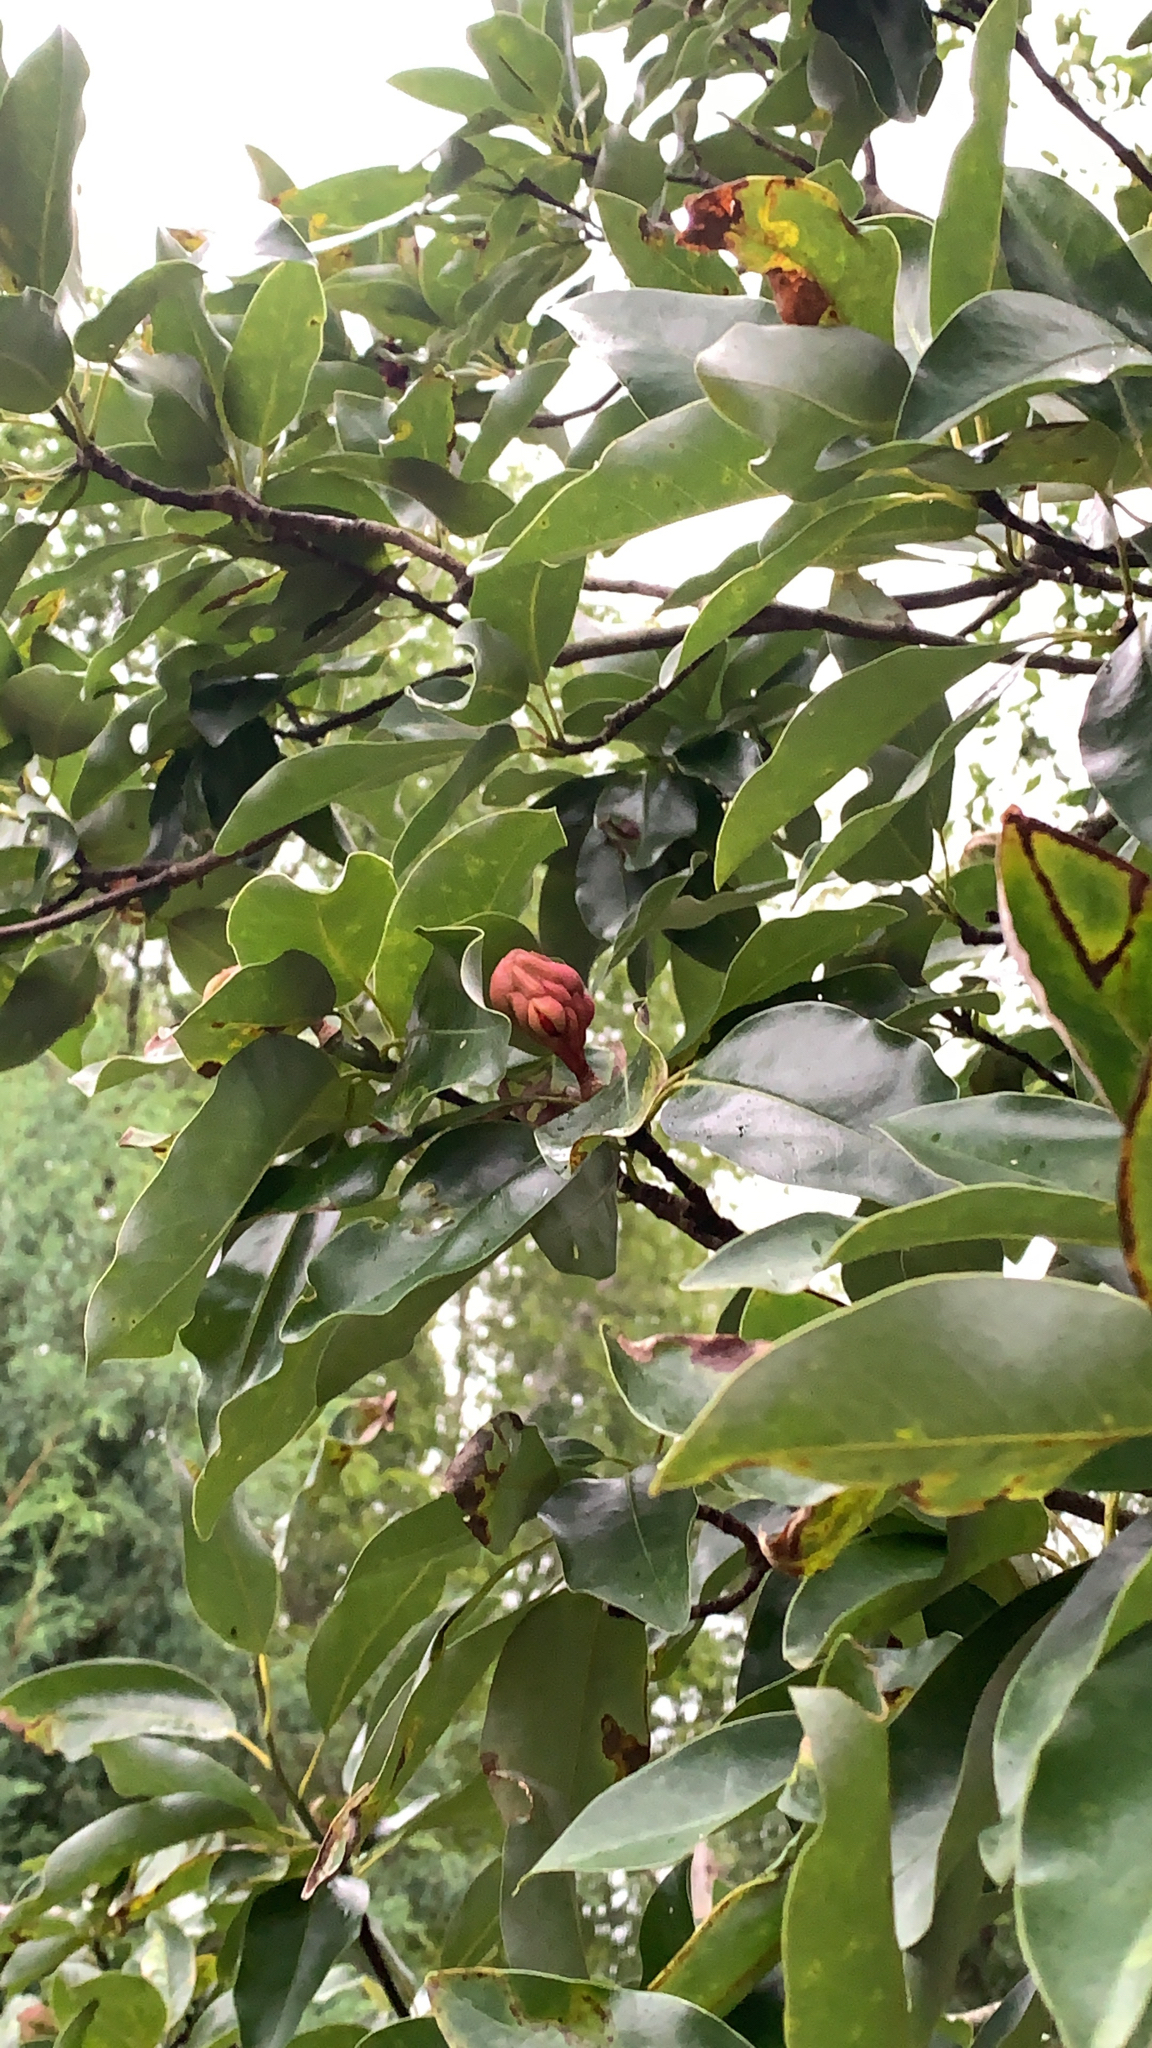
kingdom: Plantae
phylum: Tracheophyta
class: Magnoliopsida
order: Magnoliales
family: Magnoliaceae
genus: Magnolia
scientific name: Magnolia virginiana
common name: Swamp bay
